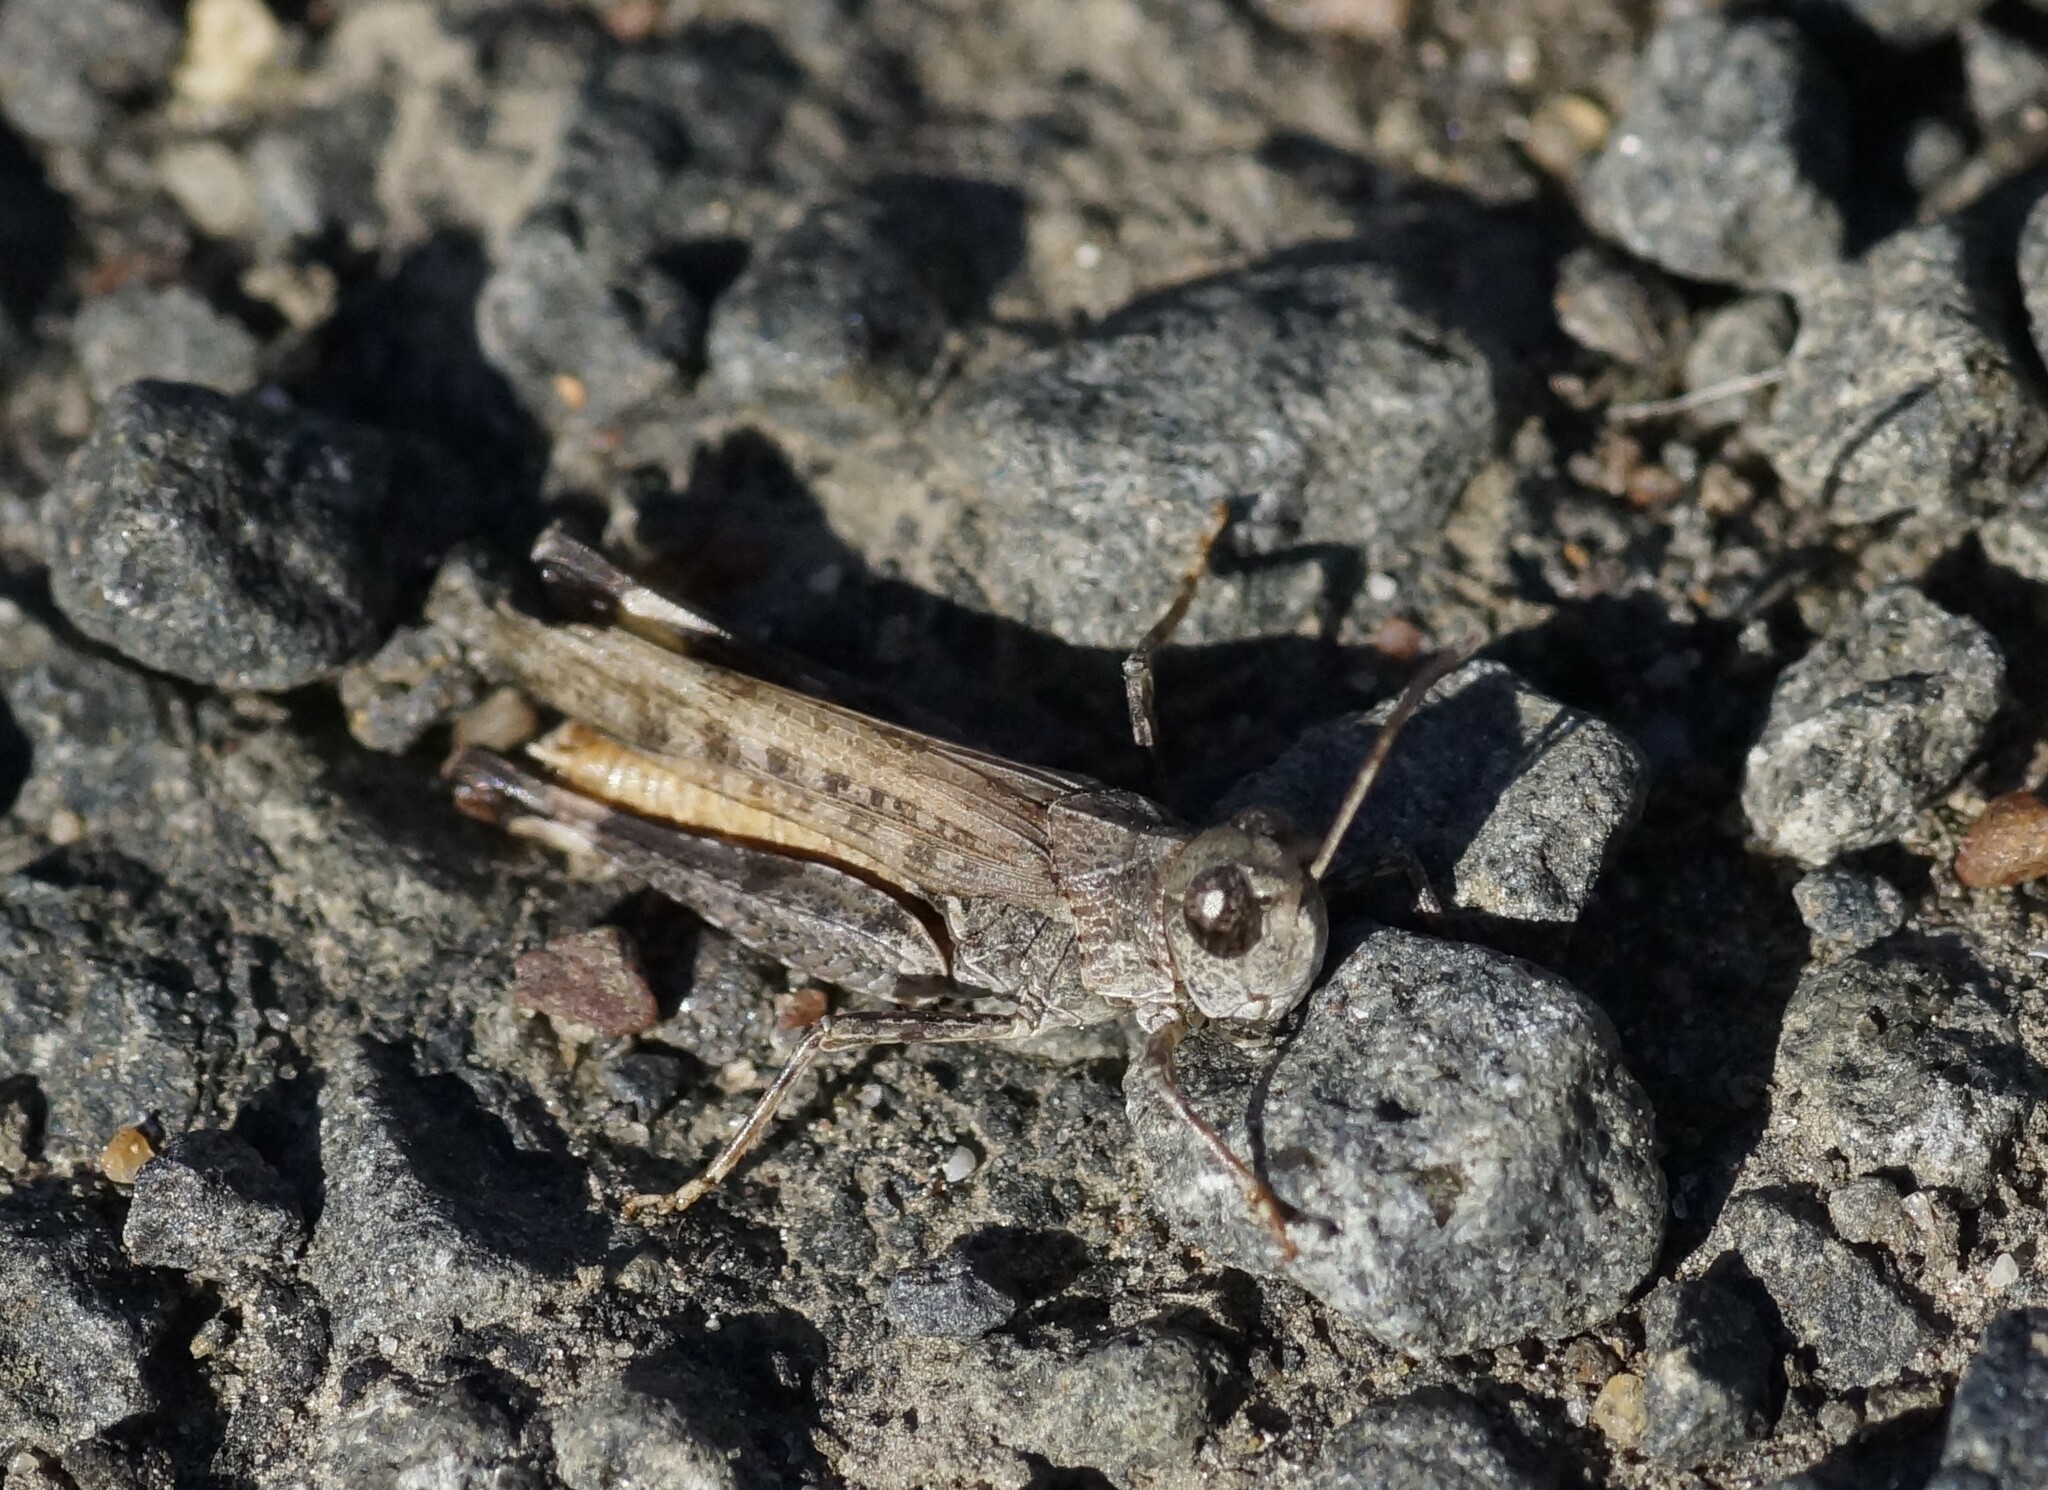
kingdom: Animalia
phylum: Arthropoda
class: Insecta
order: Orthoptera
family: Acrididae
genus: Austroicetes
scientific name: Austroicetes vulgaris
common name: Southeastern austroicetes
